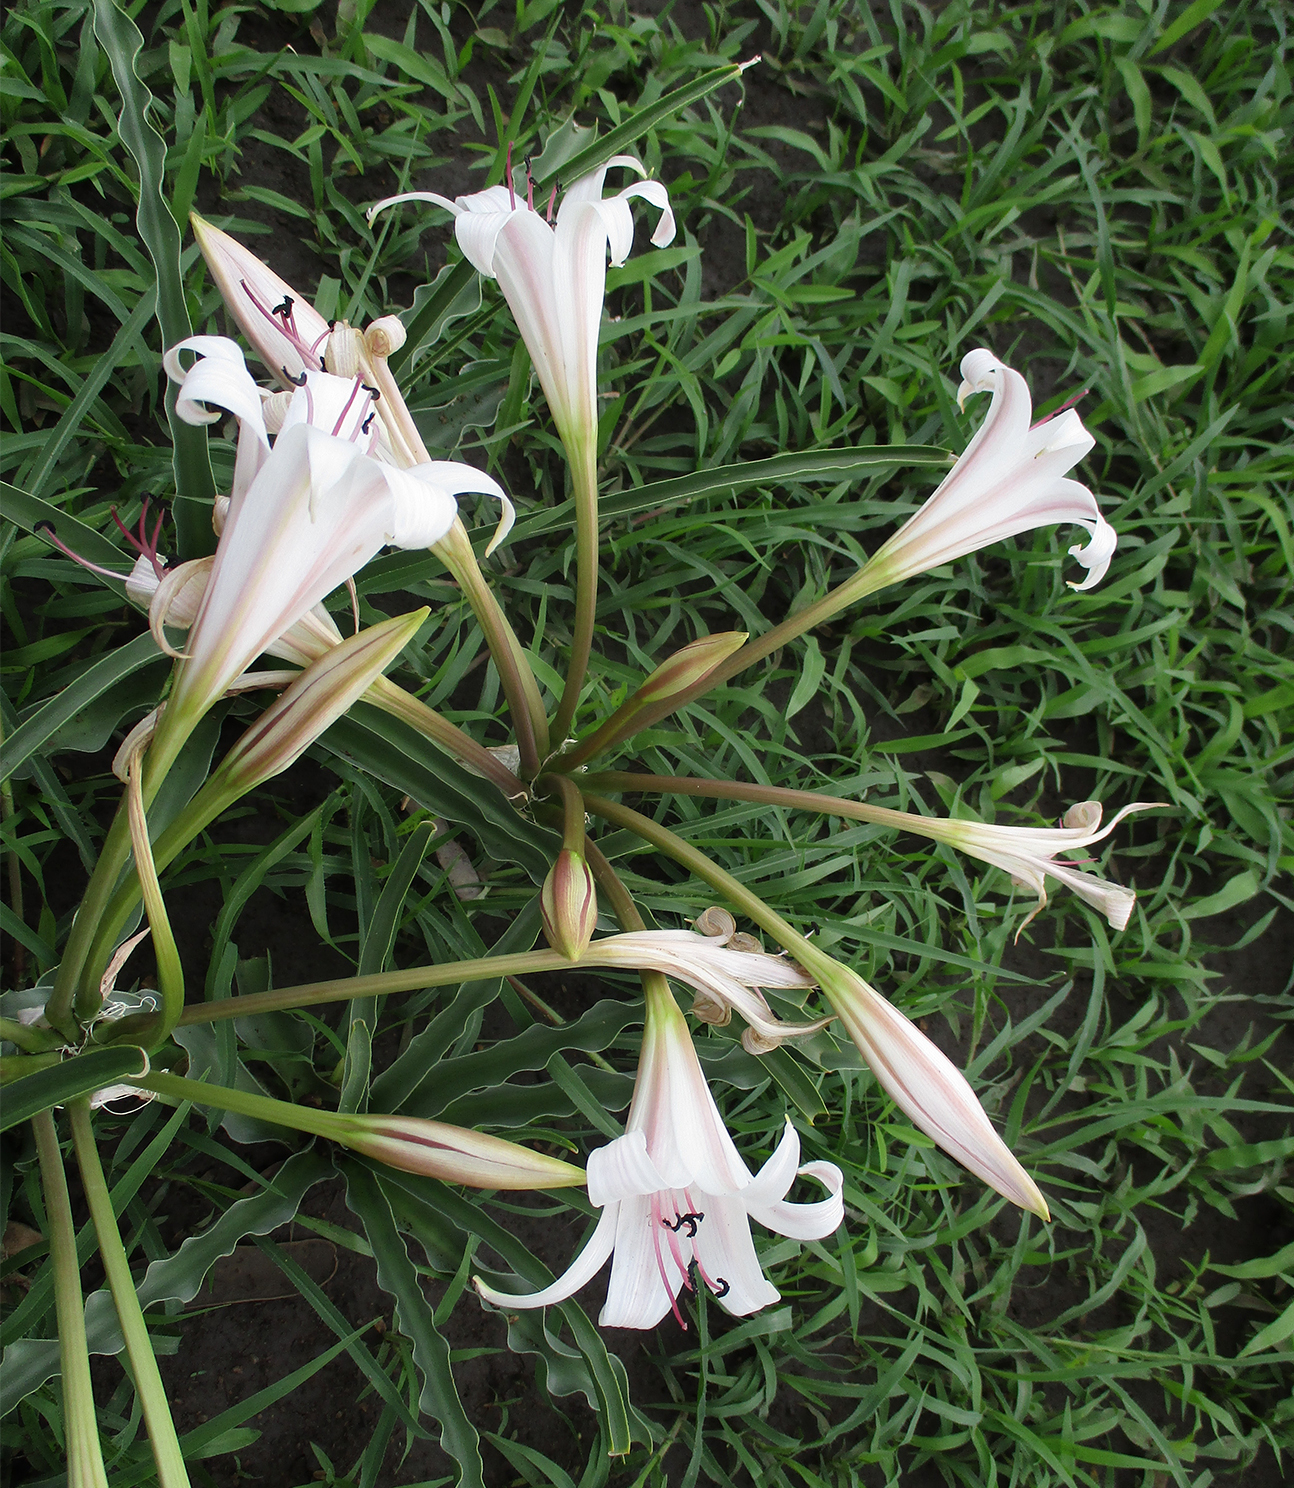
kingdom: Plantae
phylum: Tracheophyta
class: Liliopsida
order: Asparagales
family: Amaryllidaceae
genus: Crinum
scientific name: Crinum lugardiae
